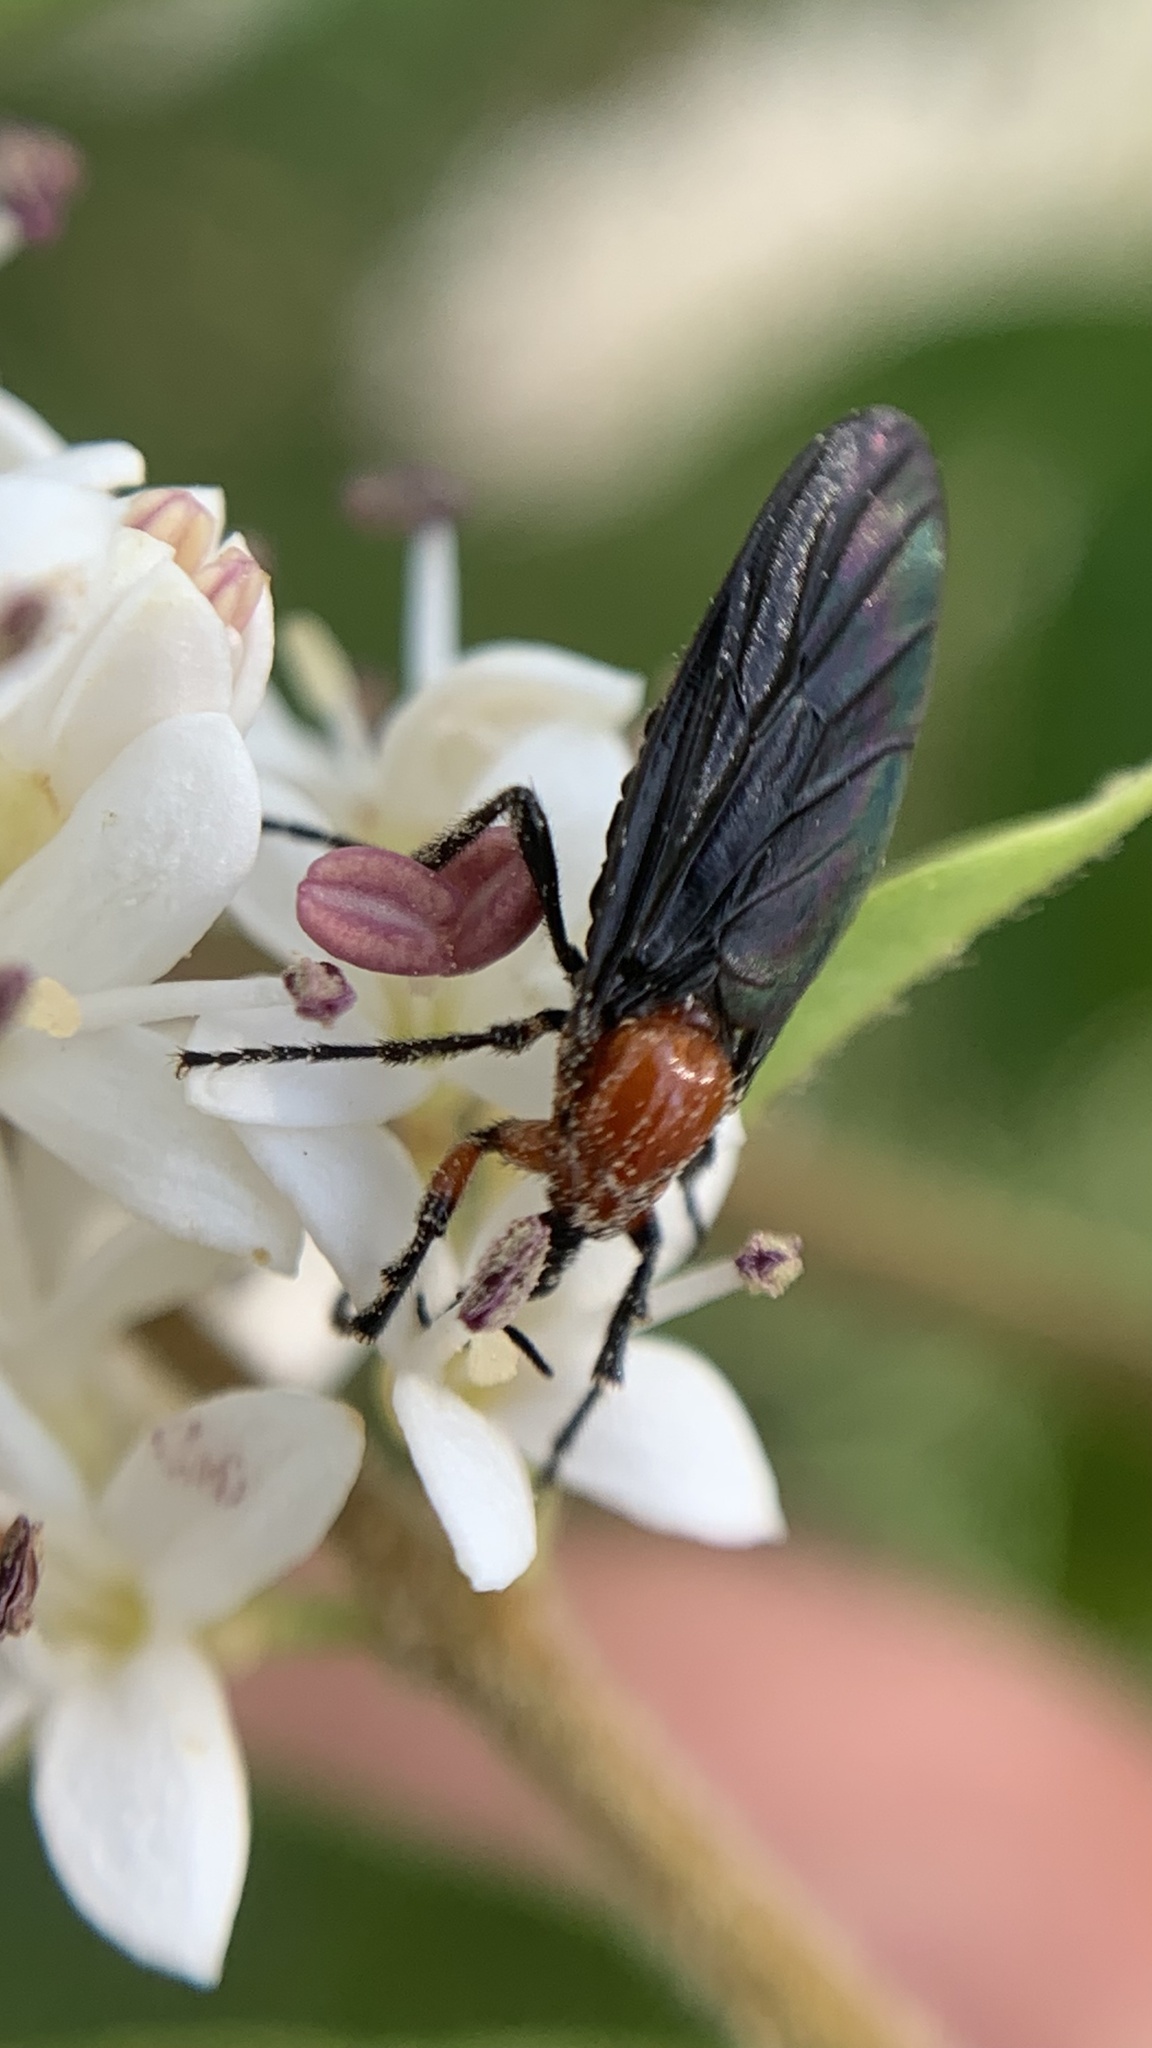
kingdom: Animalia
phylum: Arthropoda
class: Insecta
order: Diptera
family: Bibionidae
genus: Dilophus
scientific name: Dilophus pectoralis
